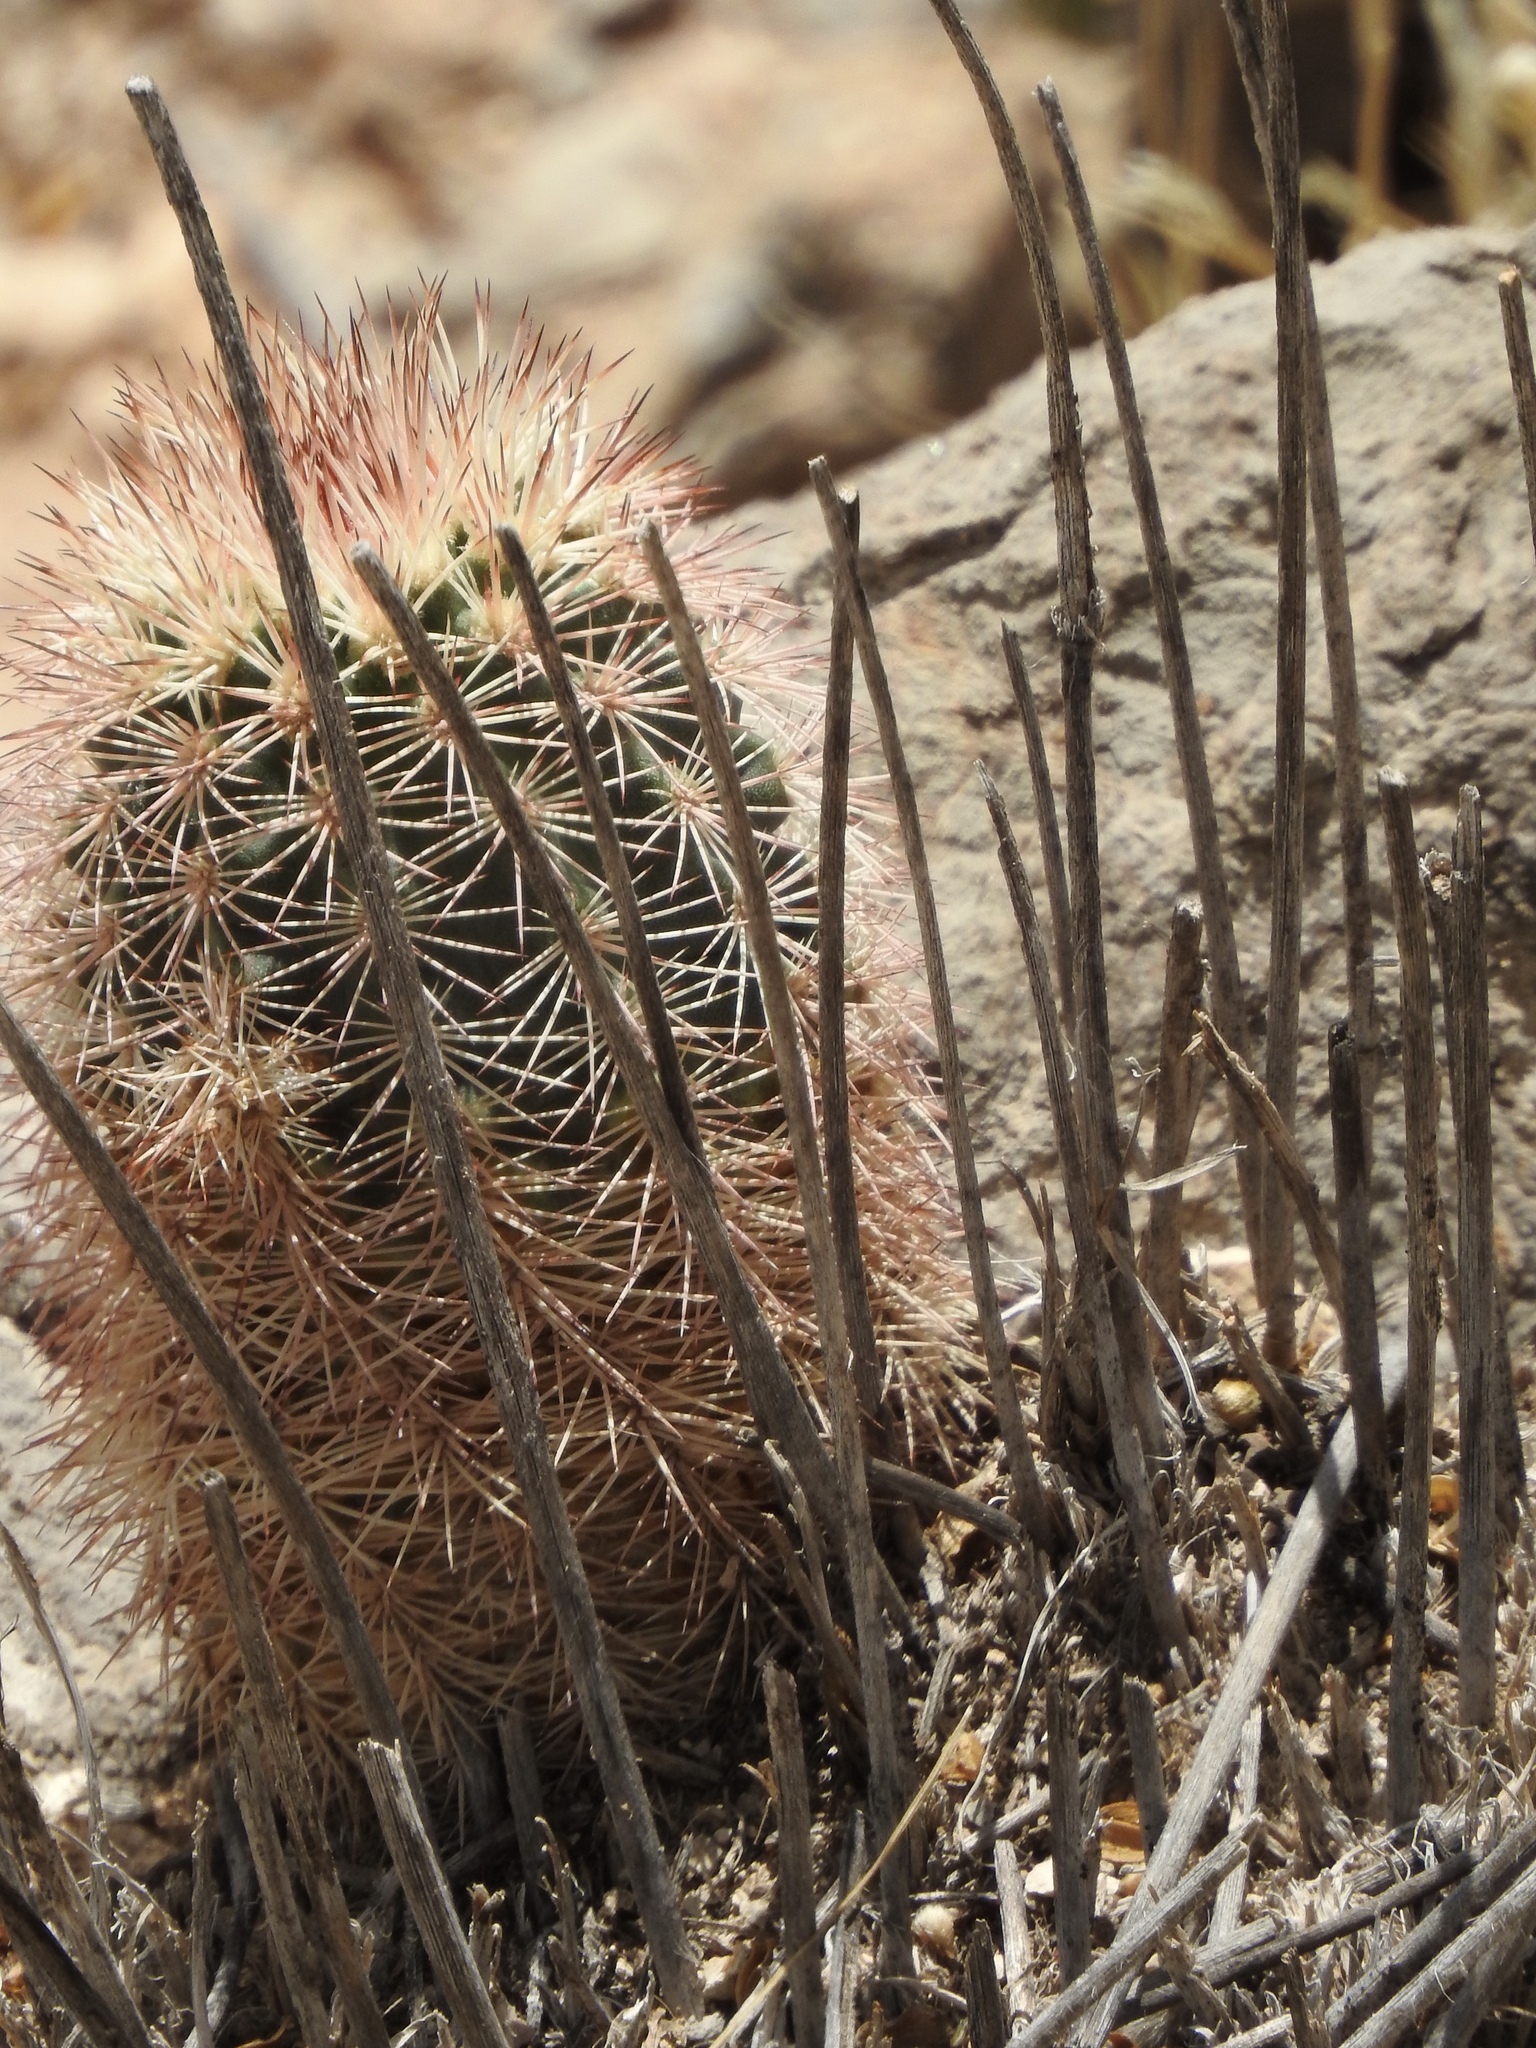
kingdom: Plantae
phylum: Tracheophyta
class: Magnoliopsida
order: Caryophyllales
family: Cactaceae
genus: Echinocereus
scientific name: Echinocereus dasyacanthus
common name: Spiny hedgehog cactus
